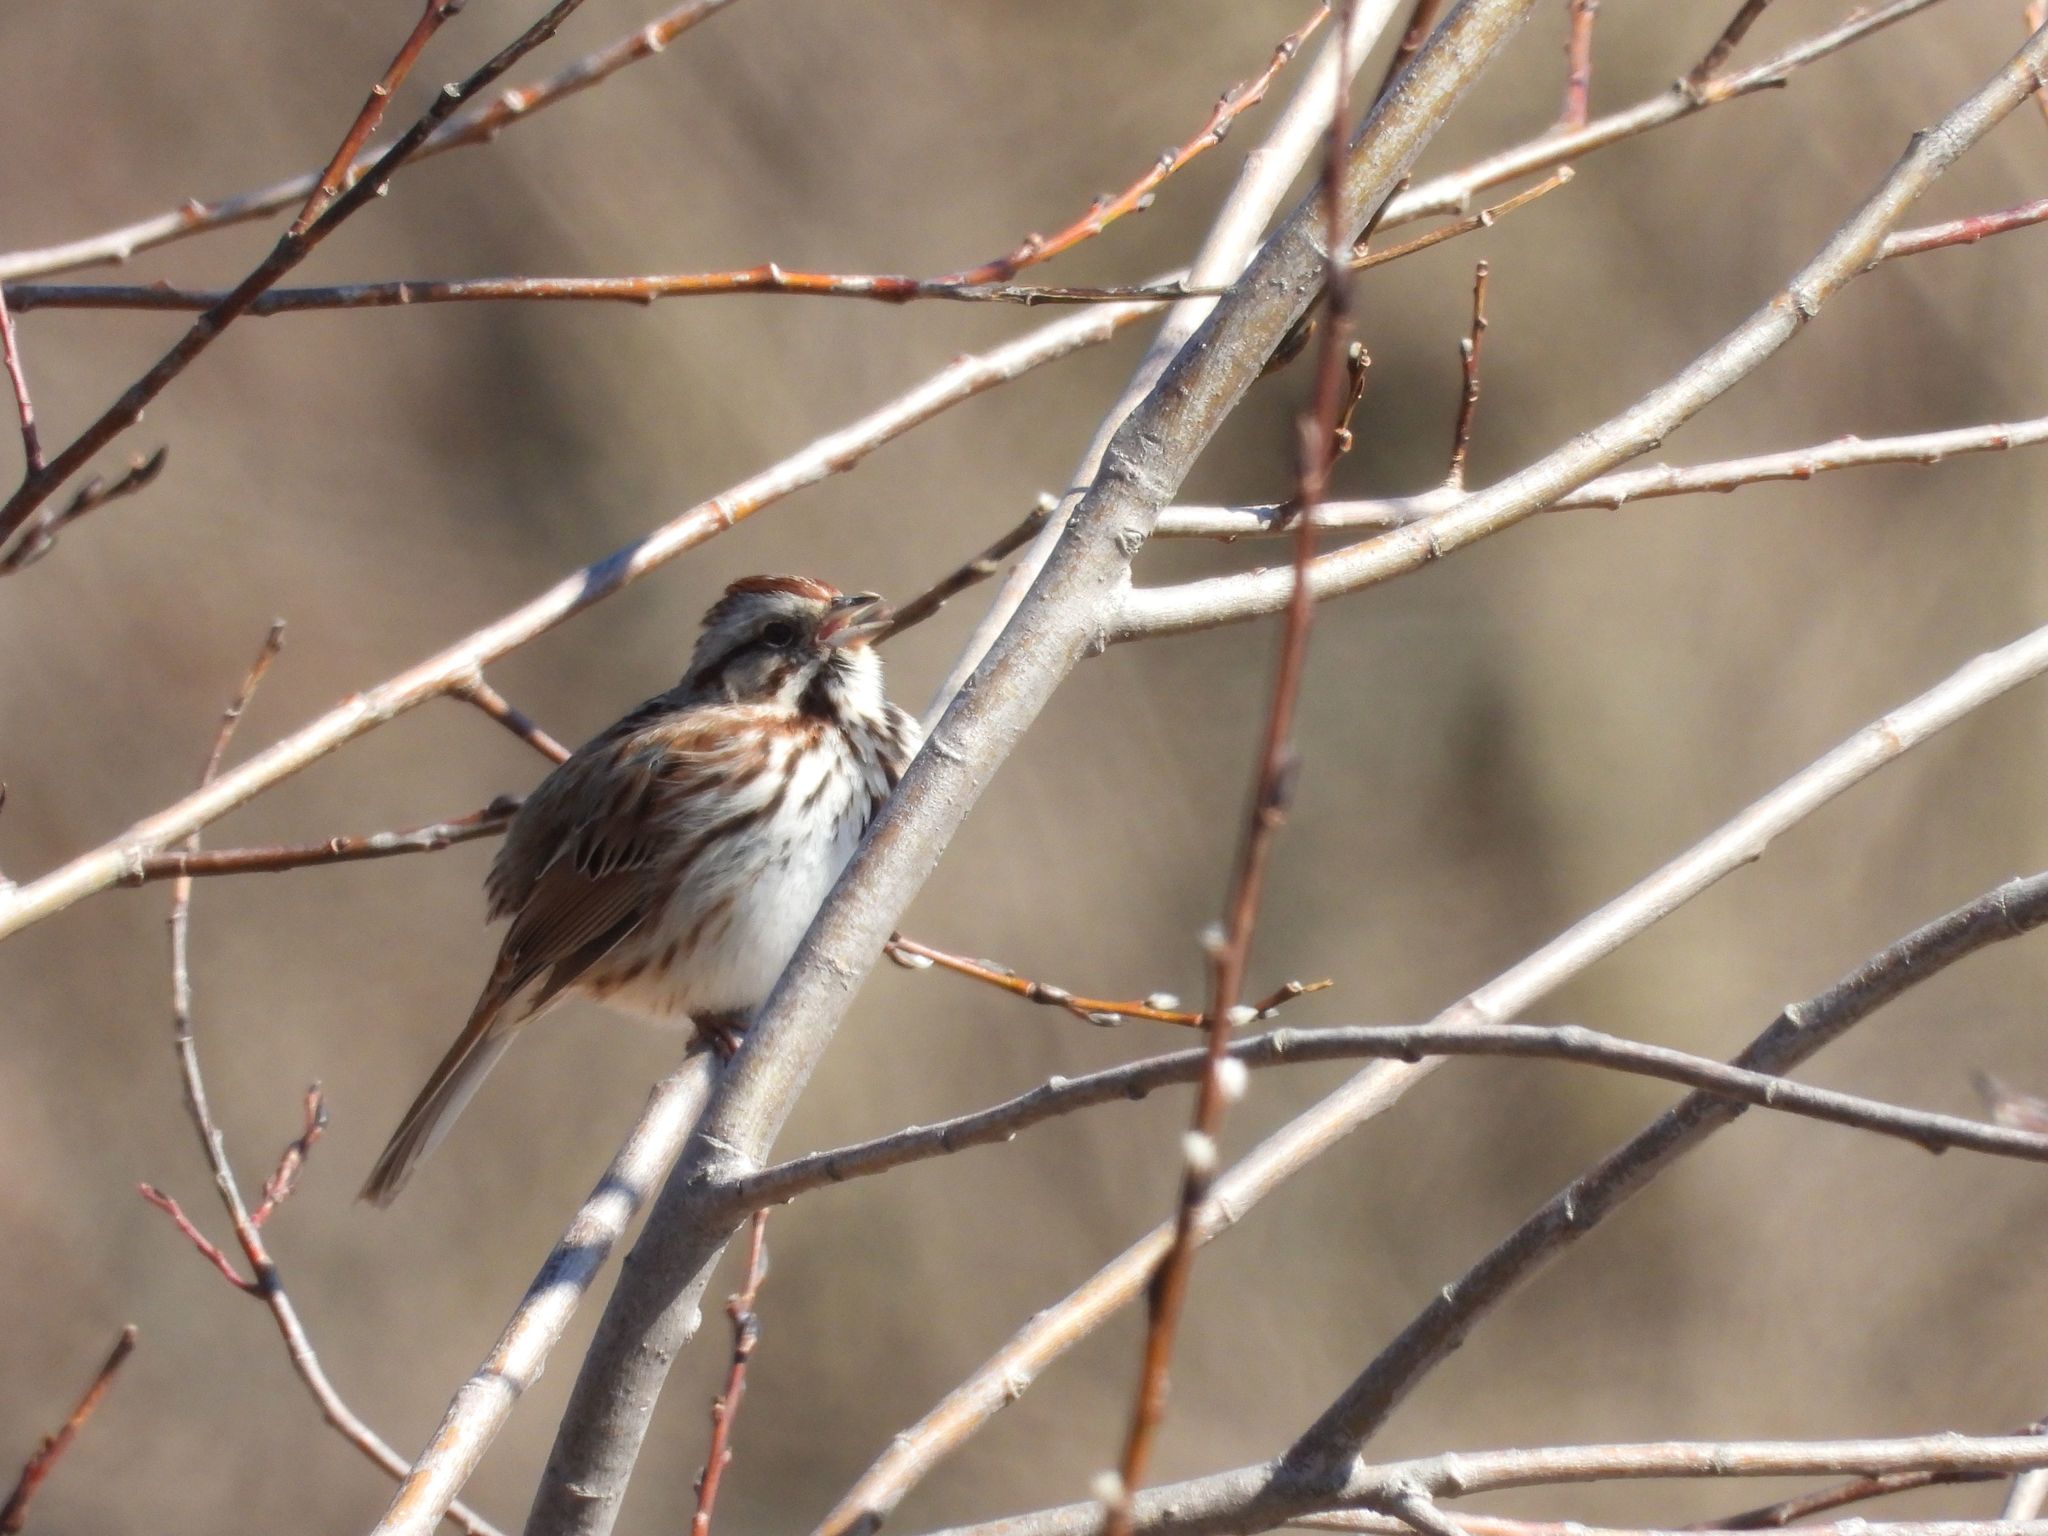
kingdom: Animalia
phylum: Chordata
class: Aves
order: Passeriformes
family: Passerellidae
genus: Melospiza
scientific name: Melospiza melodia
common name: Song sparrow
